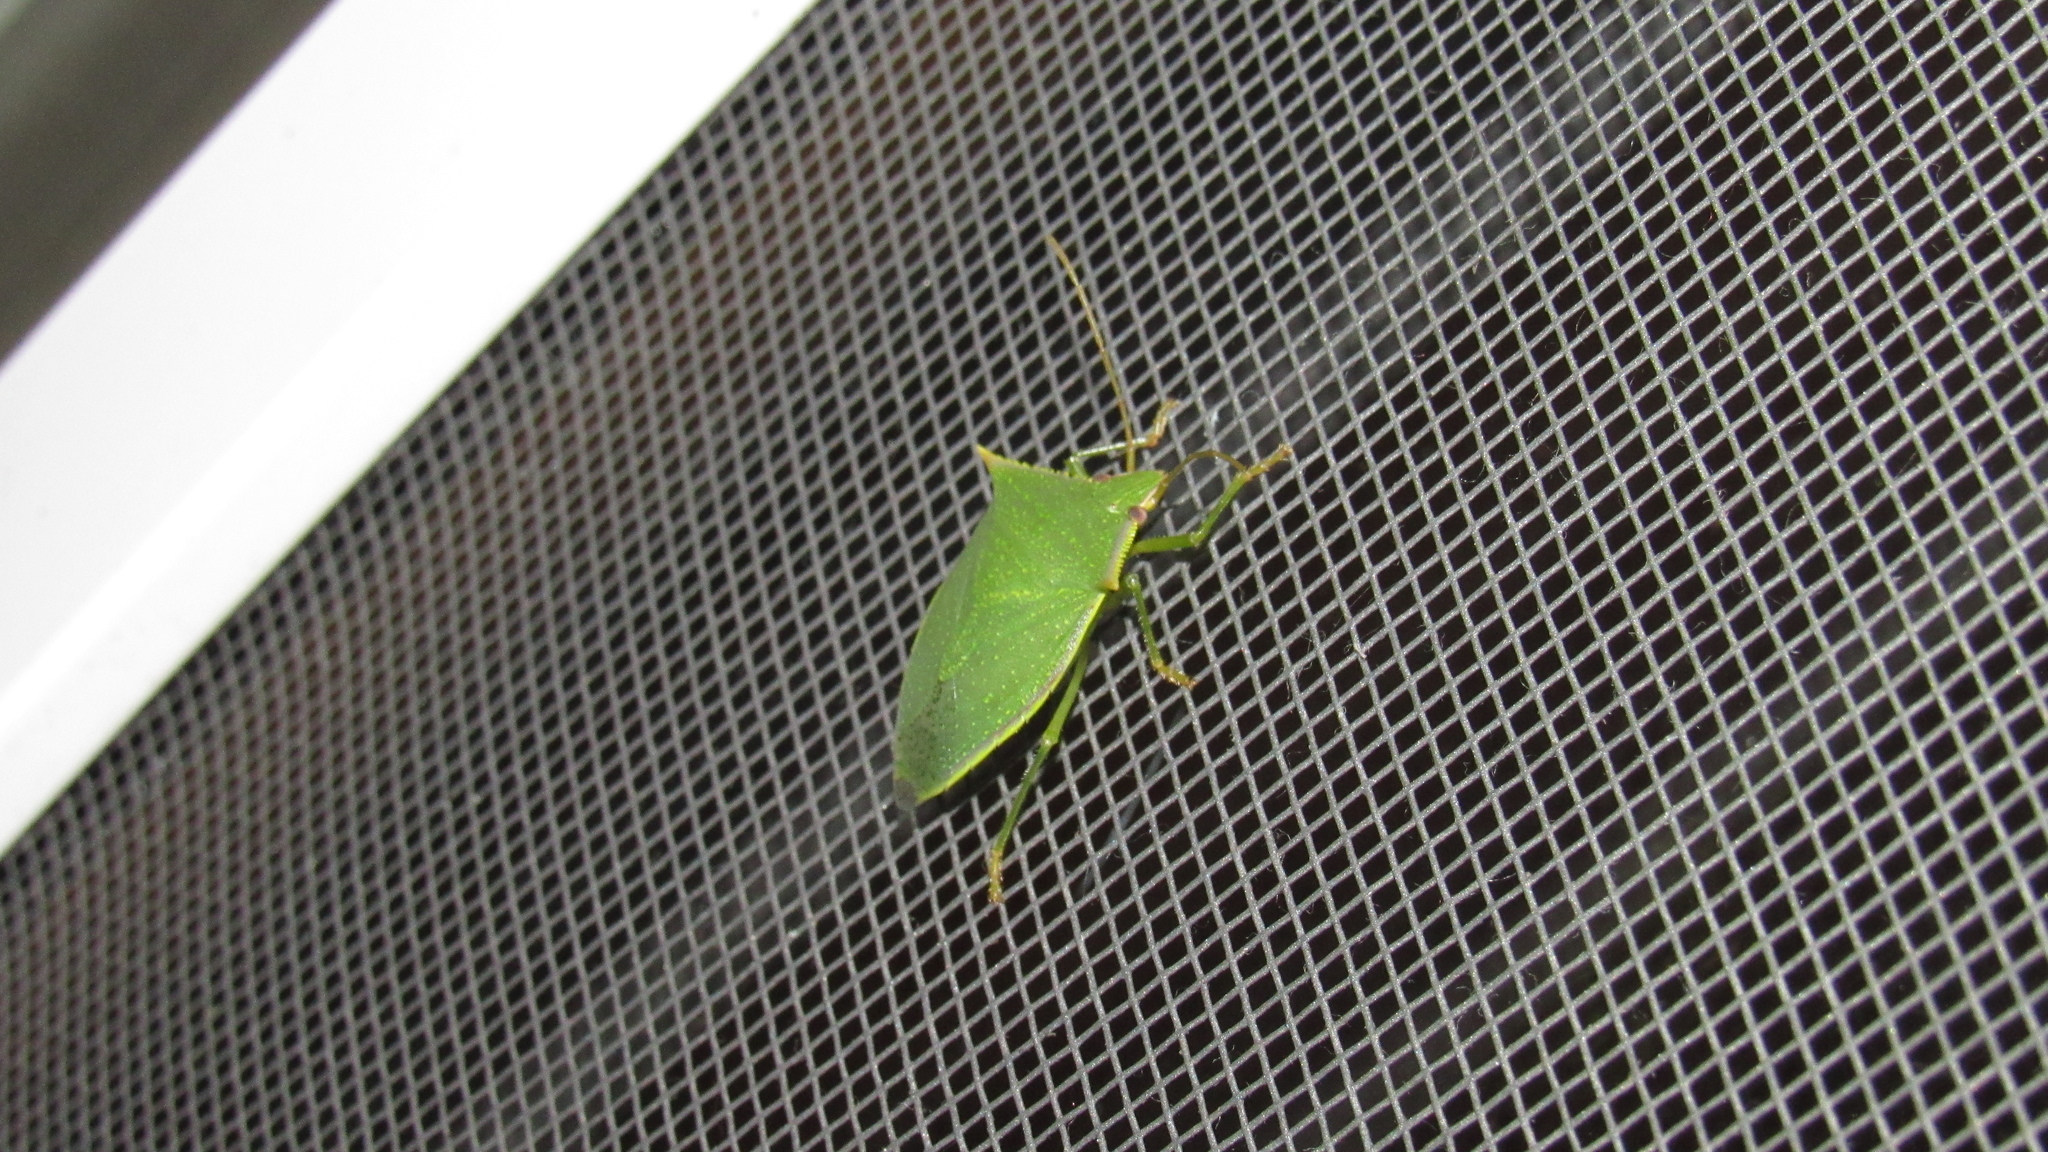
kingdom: Animalia
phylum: Arthropoda
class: Insecta
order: Hemiptera
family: Pentatomidae
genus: Loxa
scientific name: Loxa viridis
